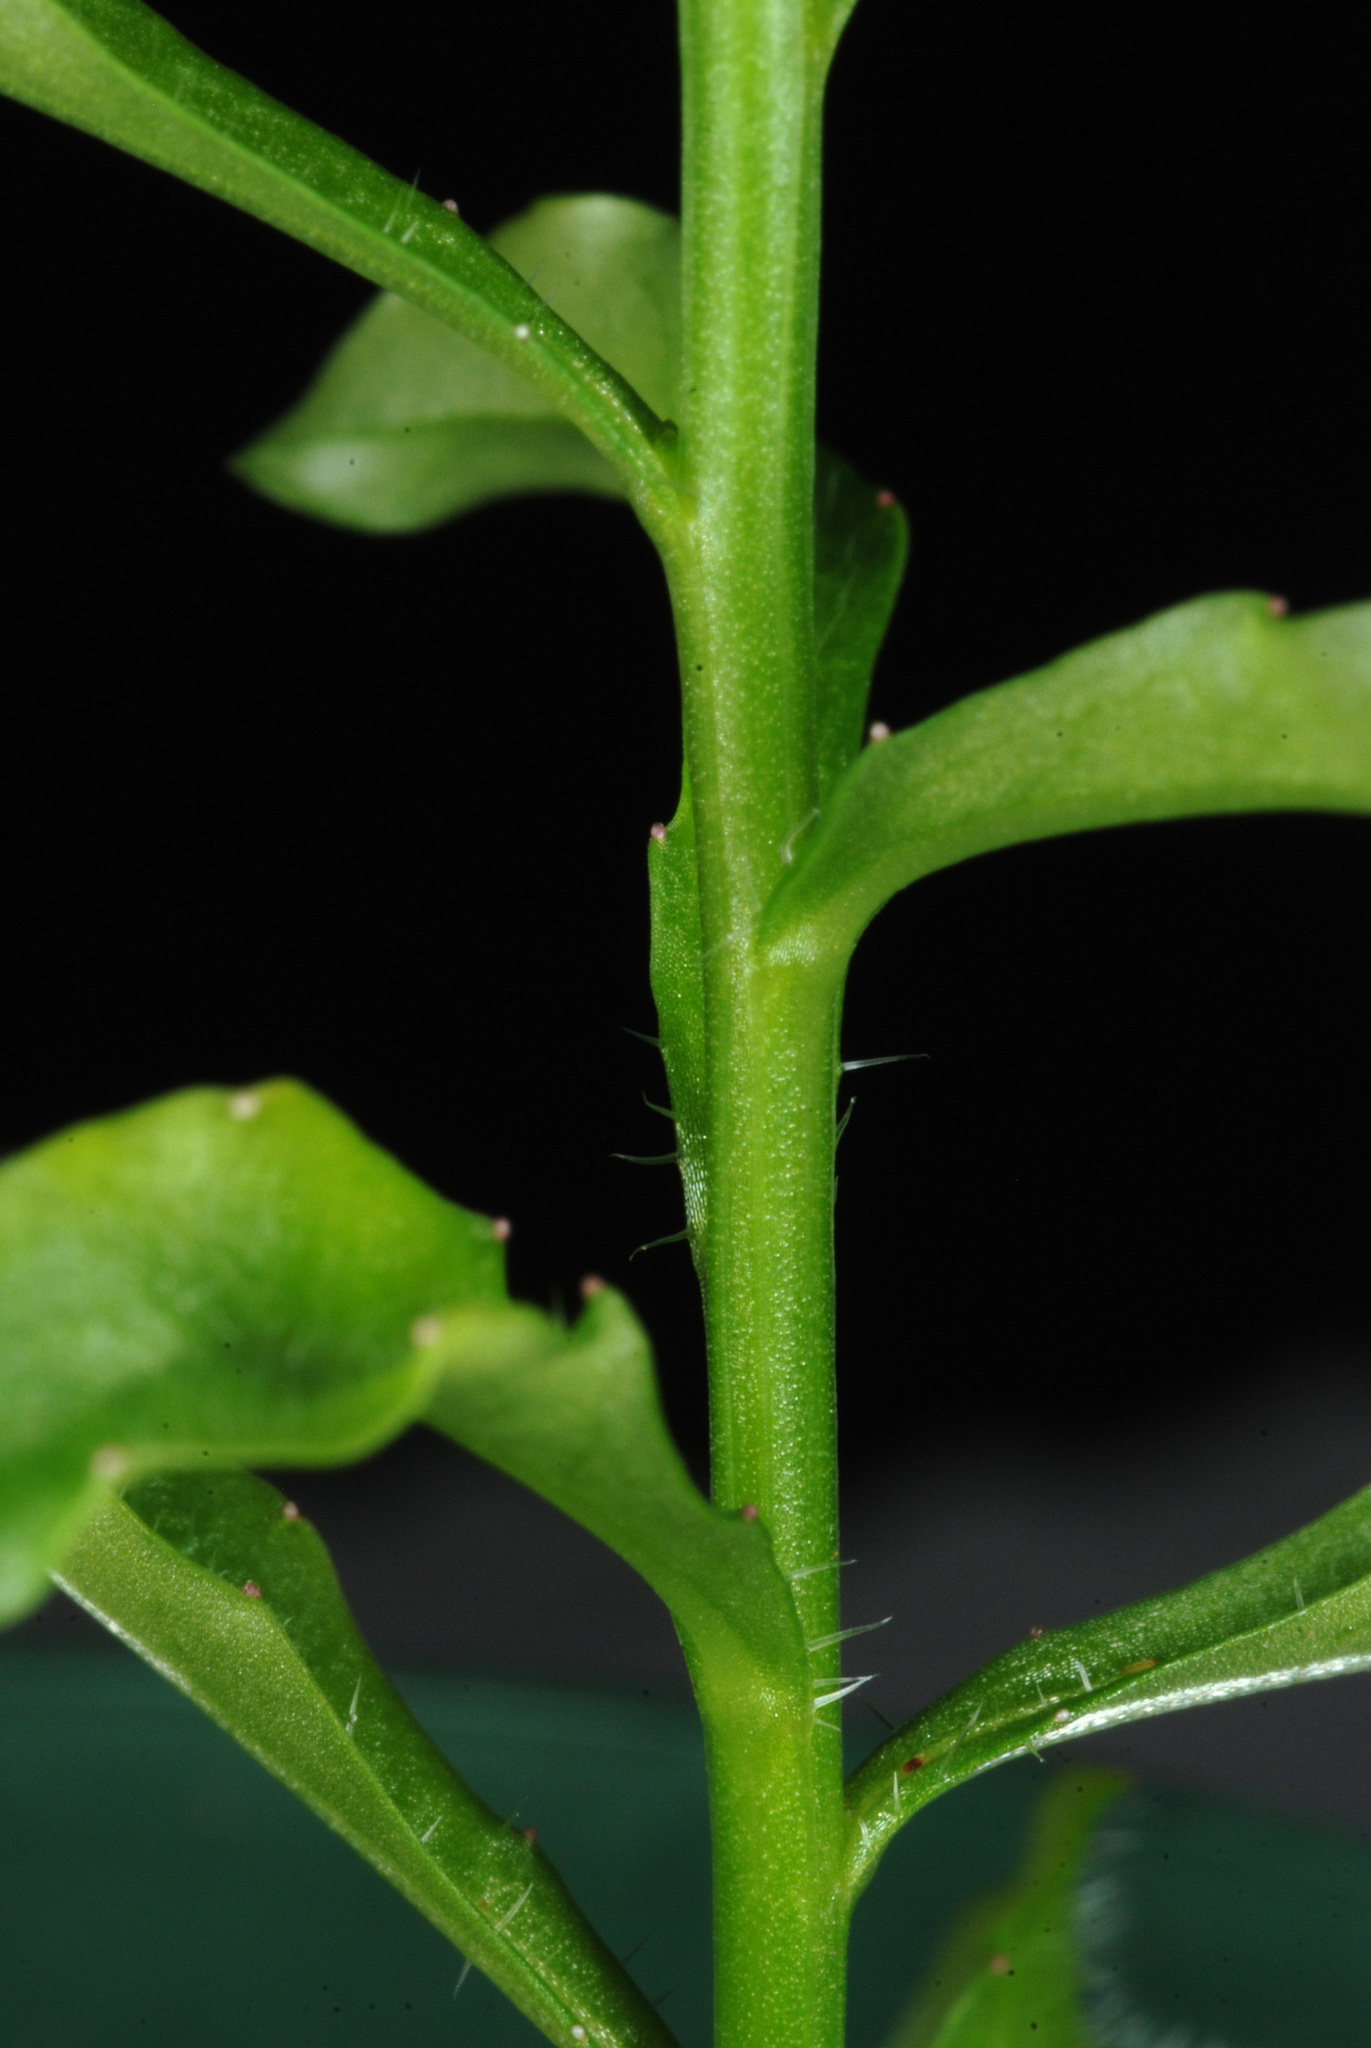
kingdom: Plantae
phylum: Tracheophyta
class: Magnoliopsida
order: Asterales
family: Campanulaceae
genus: Wahlenbergia
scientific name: Wahlenbergia marginata
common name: Southern rockbell
